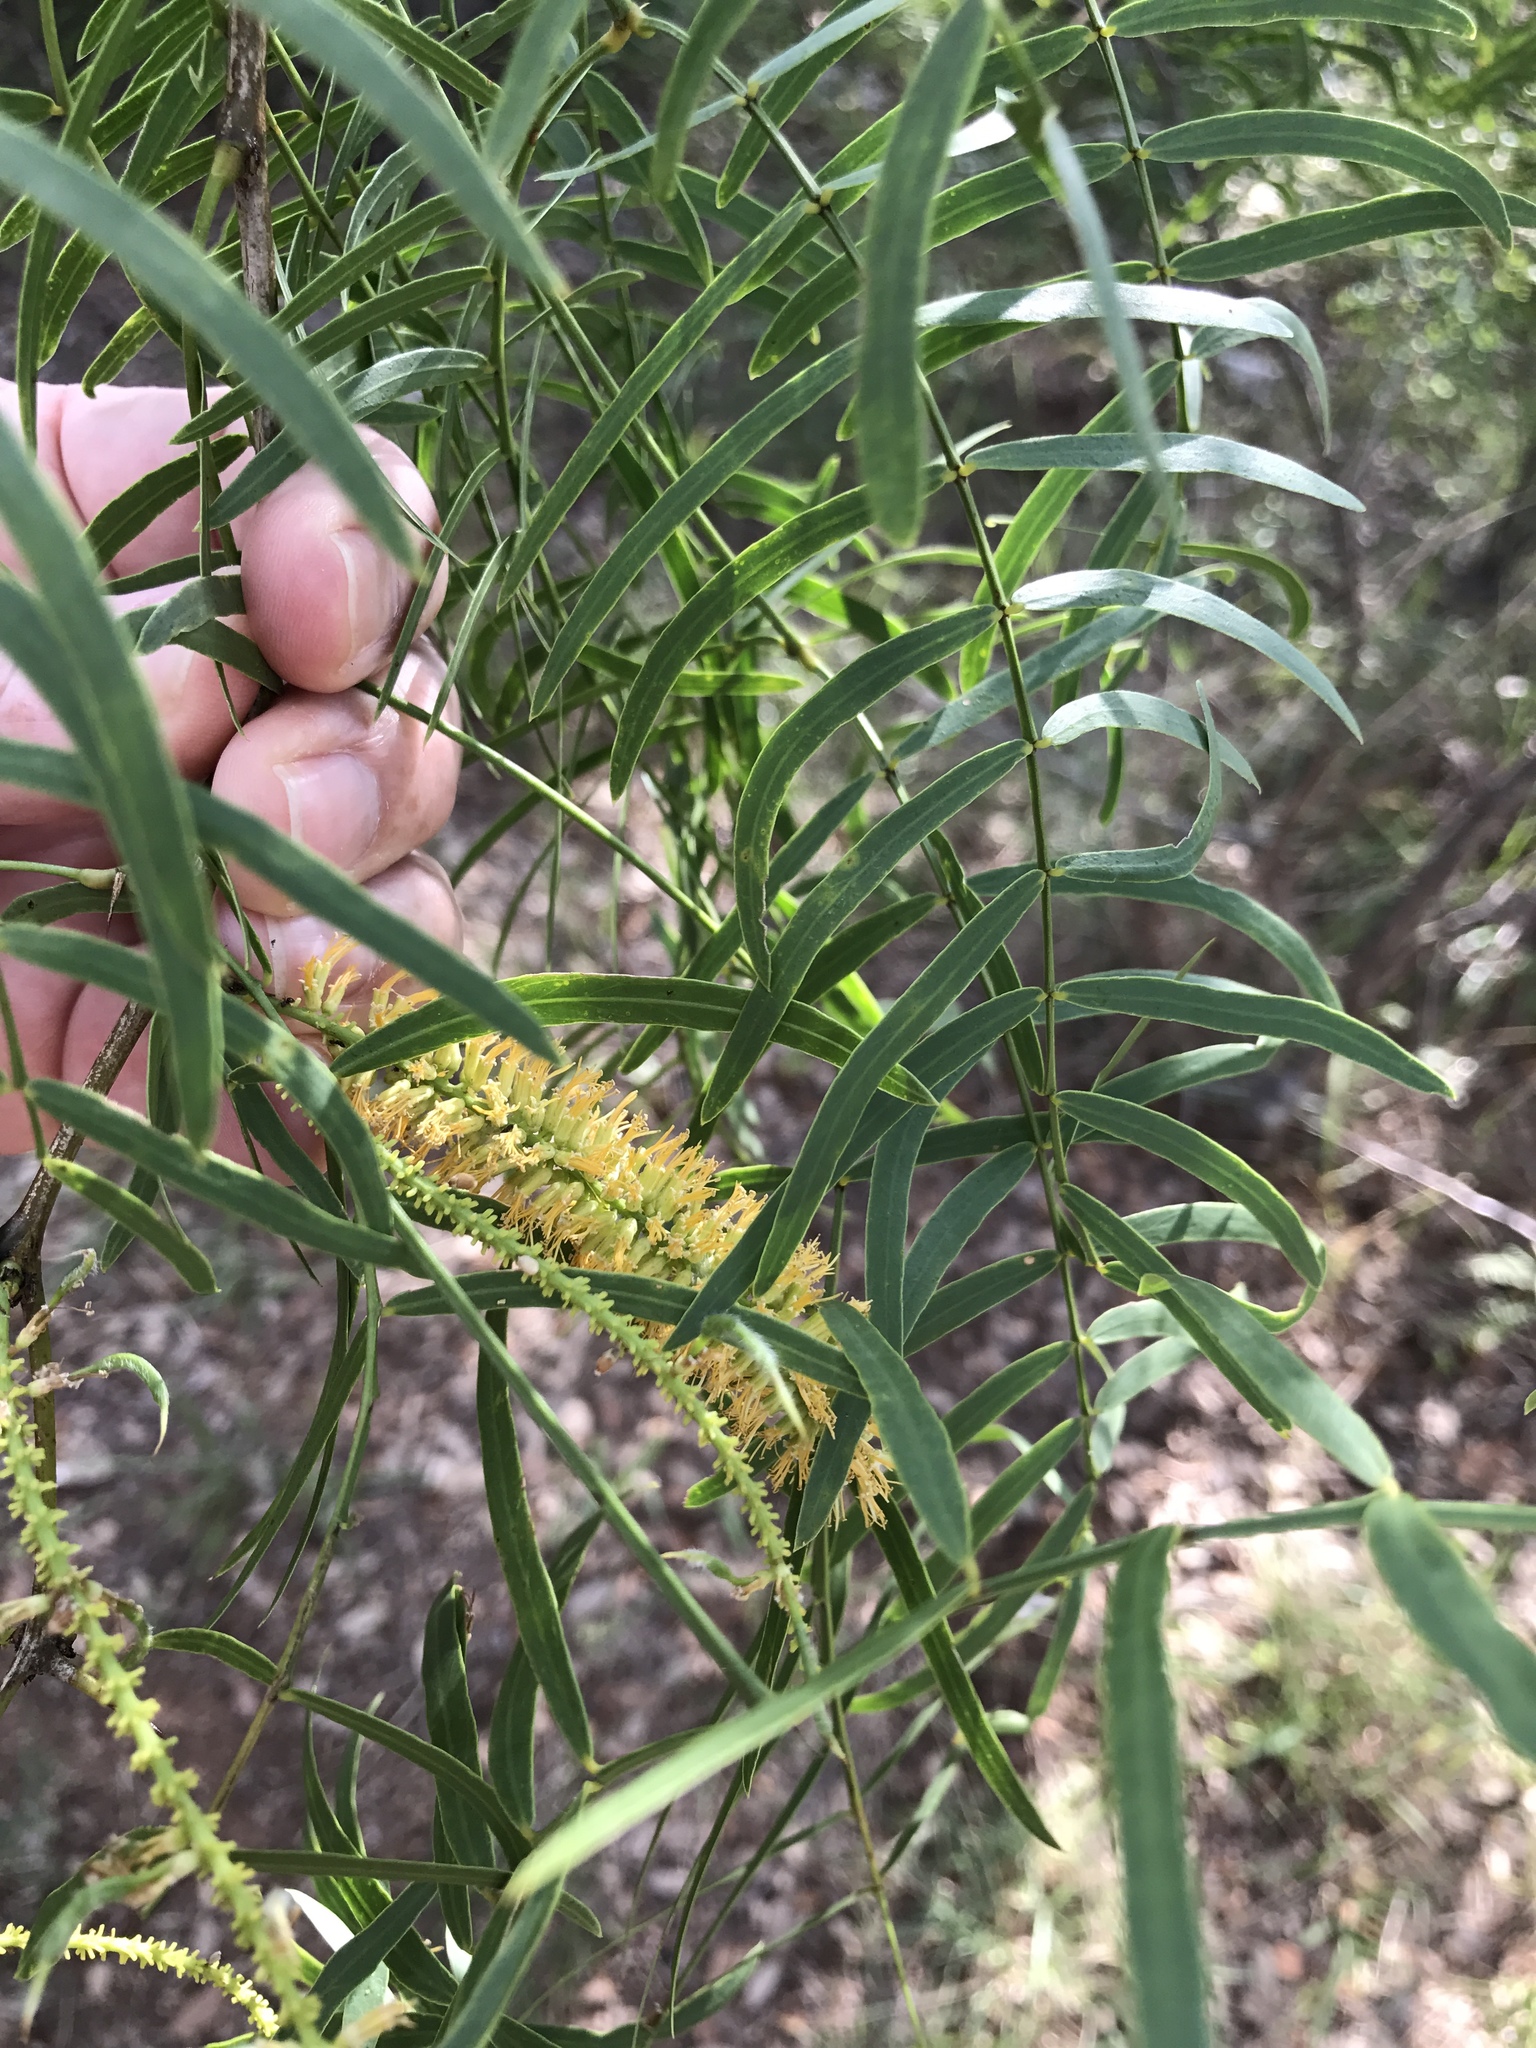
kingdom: Plantae
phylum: Tracheophyta
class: Magnoliopsida
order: Fabales
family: Fabaceae
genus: Prosopis
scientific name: Prosopis glandulosa
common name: Honey mesquite
